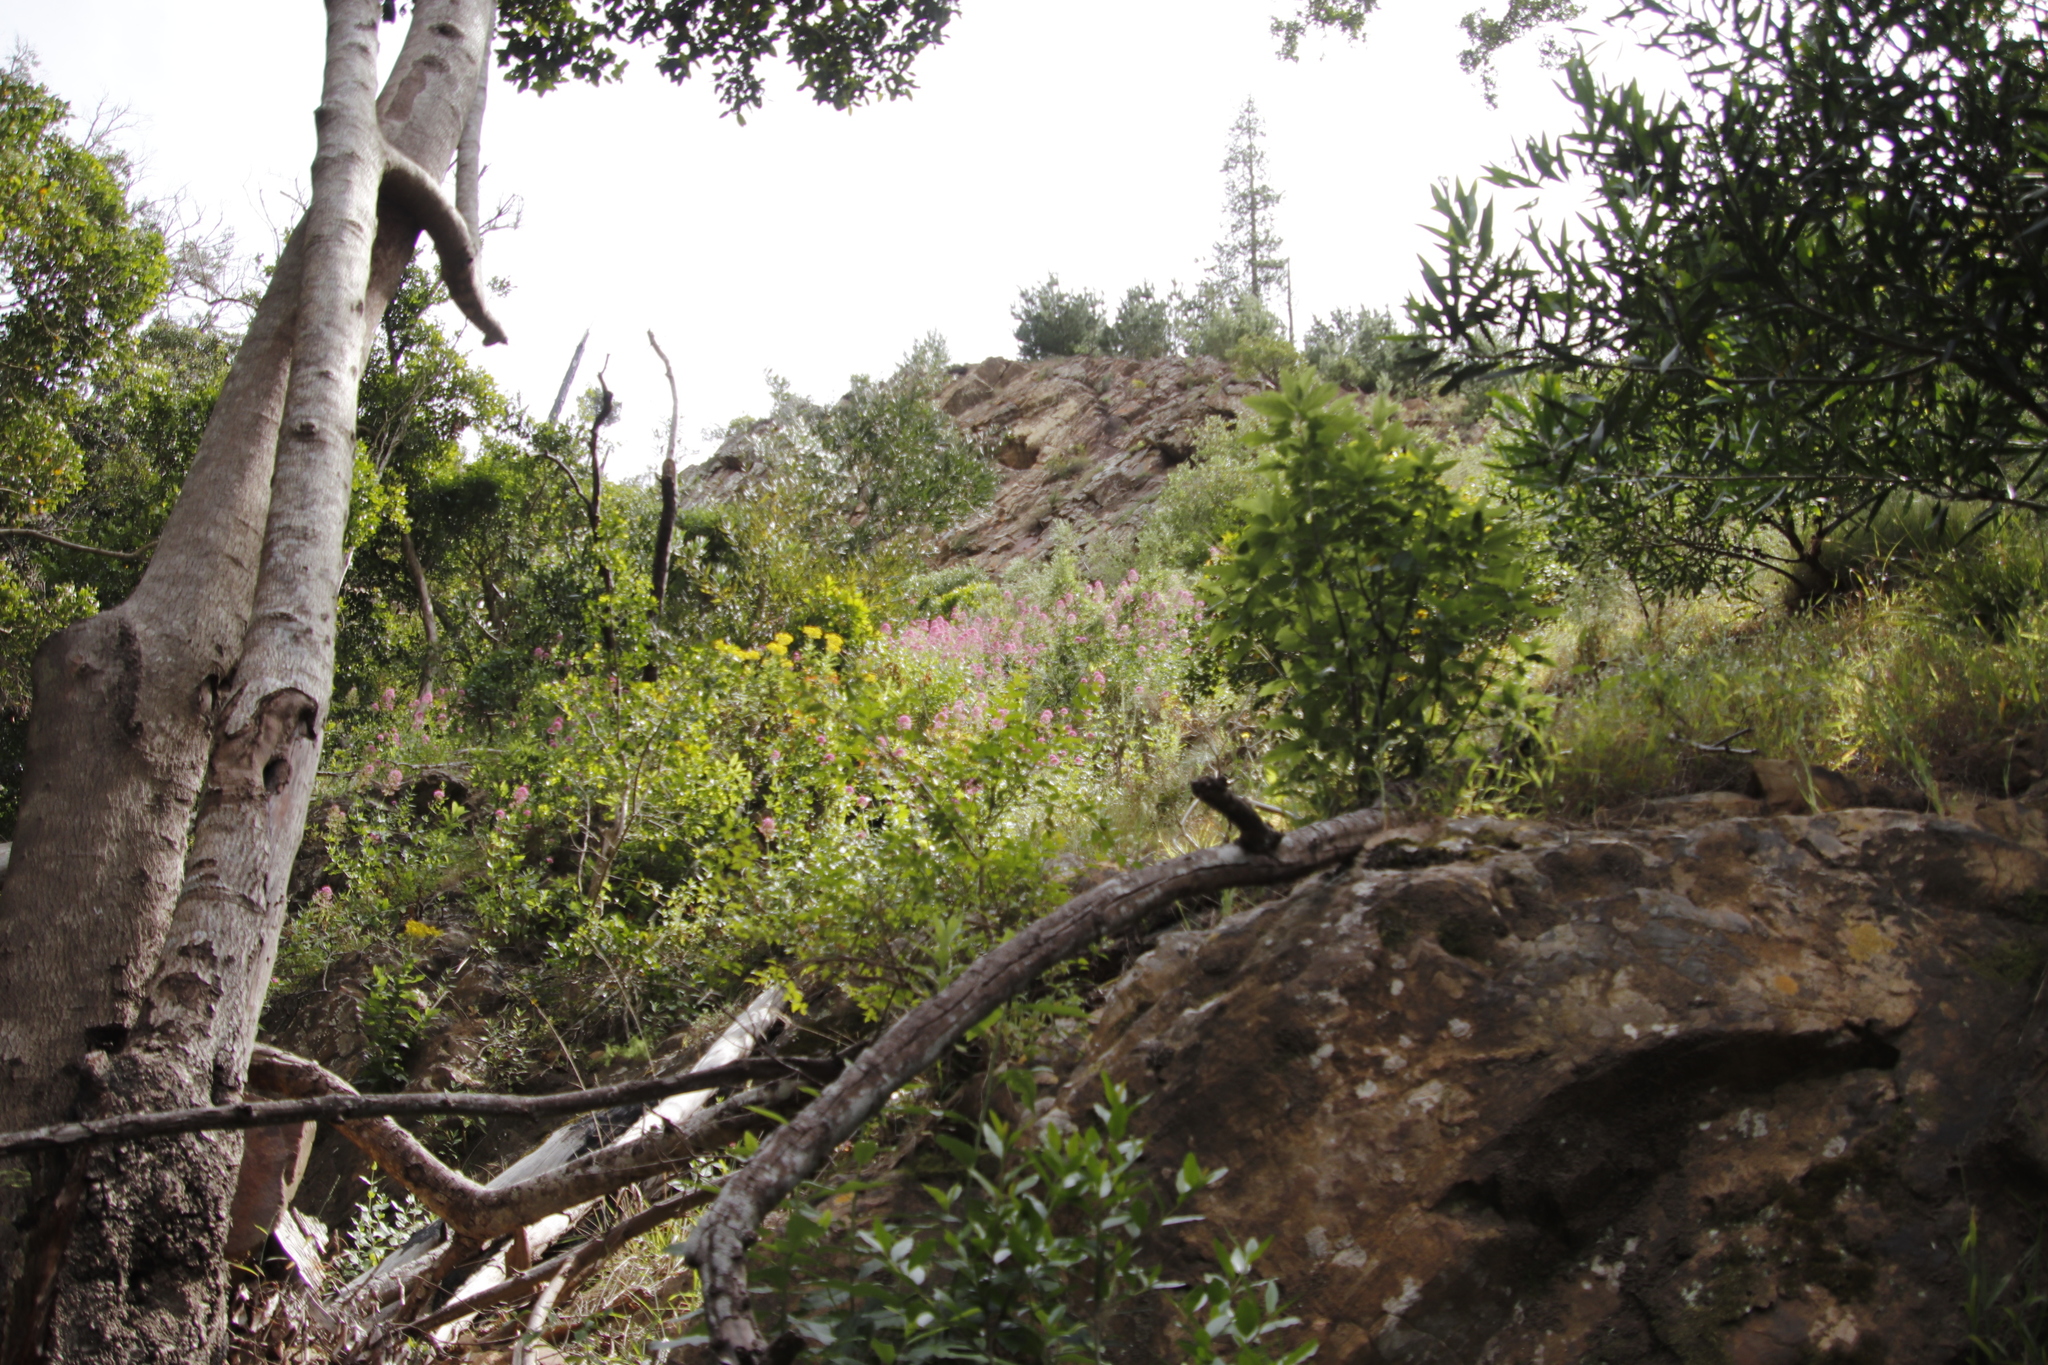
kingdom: Plantae
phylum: Tracheophyta
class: Magnoliopsida
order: Dipsacales
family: Caprifoliaceae
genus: Centranthus
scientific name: Centranthus ruber
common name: Red valerian
